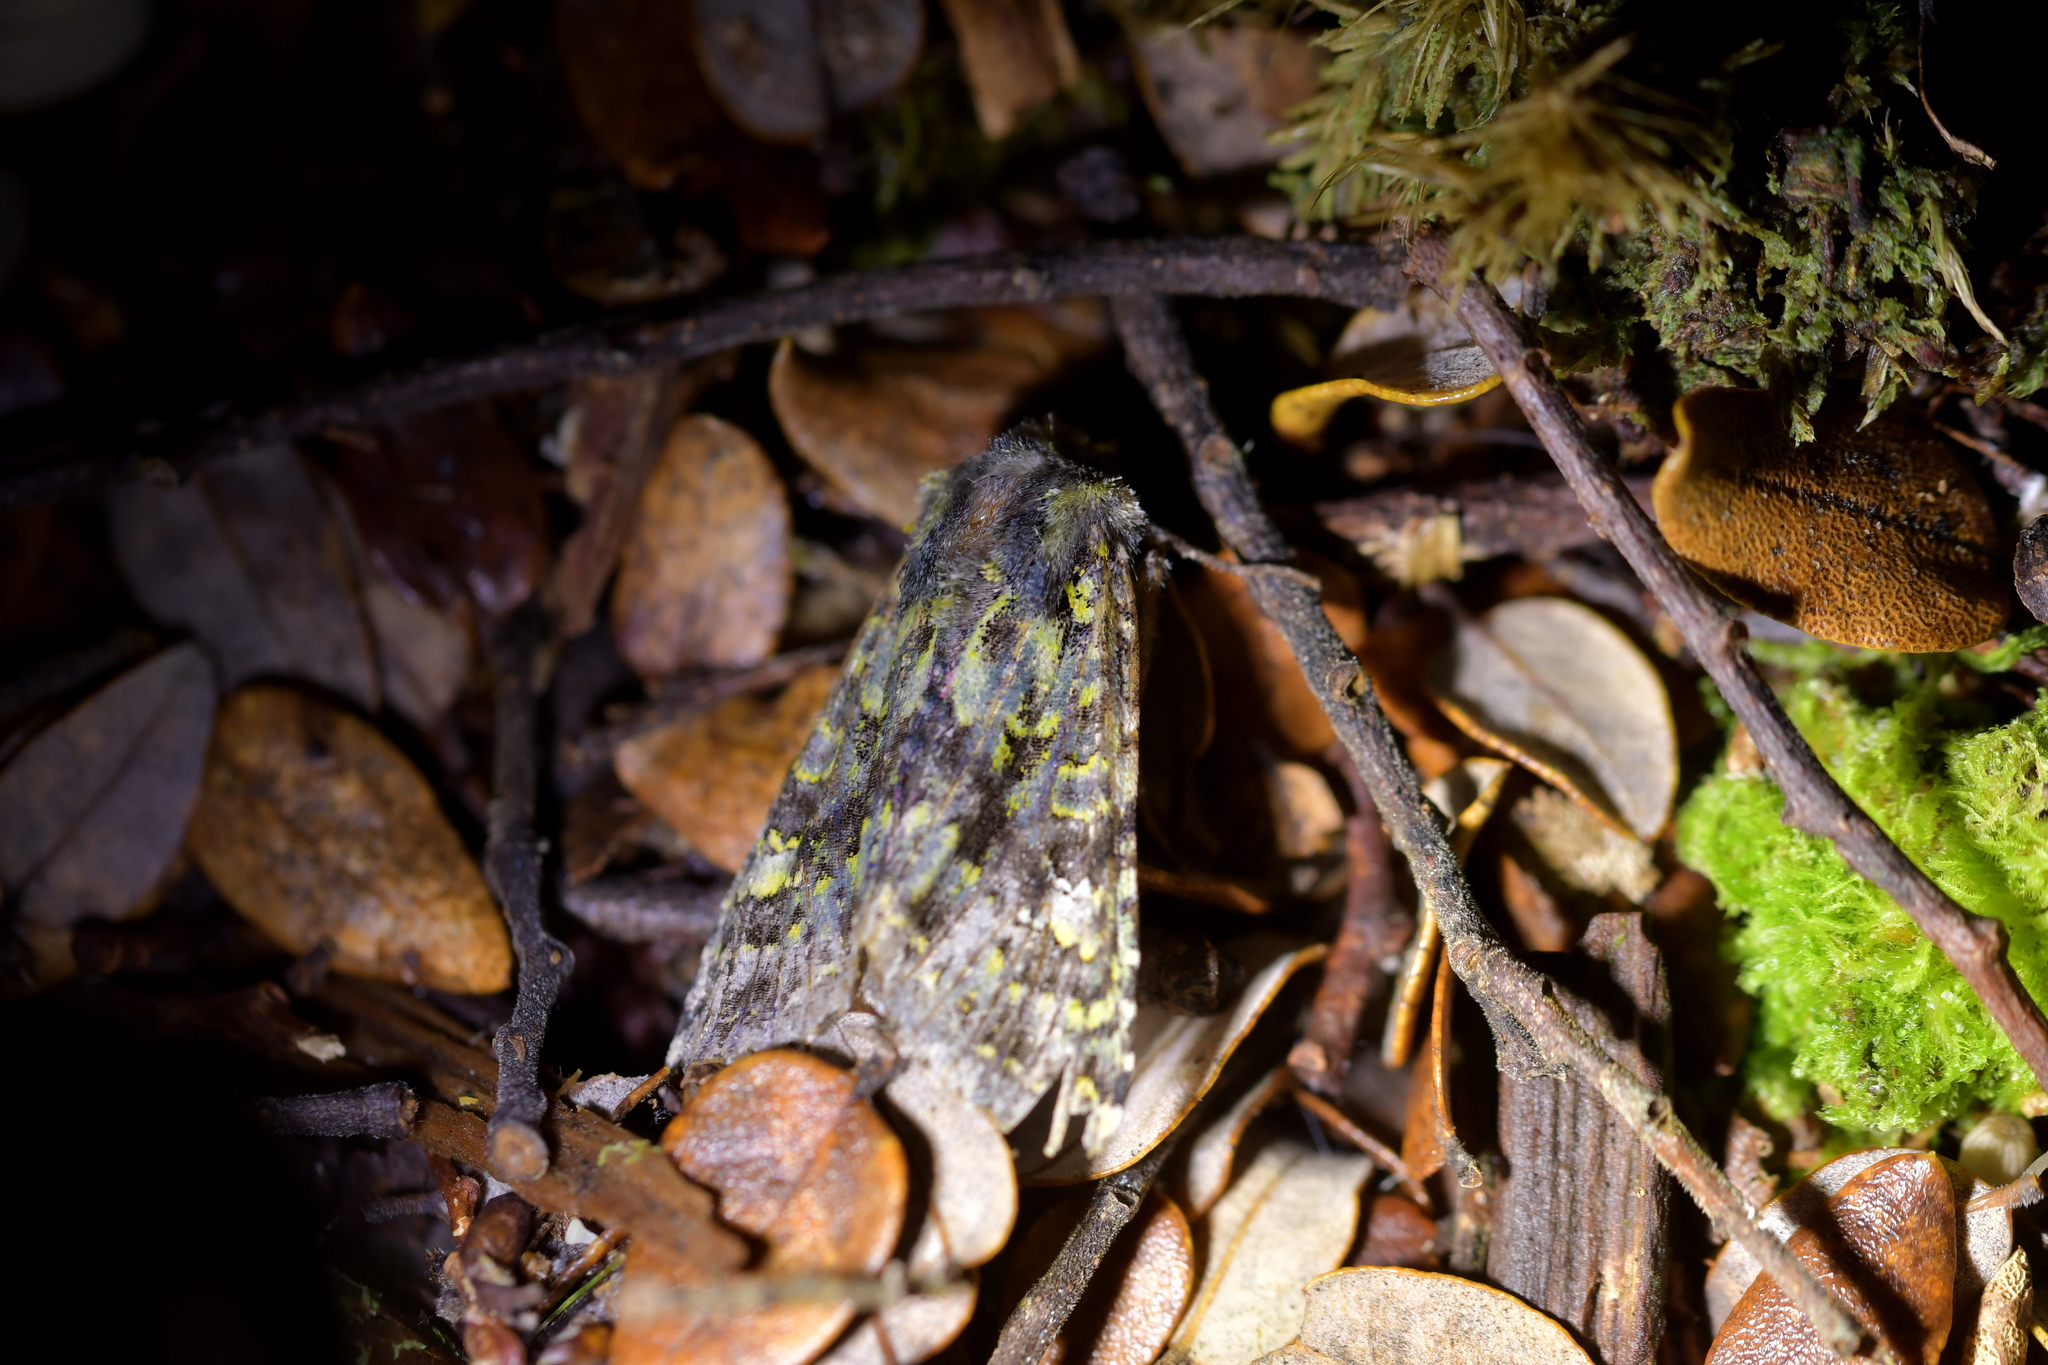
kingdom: Animalia
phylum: Arthropoda
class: Insecta
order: Lepidoptera
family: Noctuidae
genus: Meterana
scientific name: Meterana pictula
